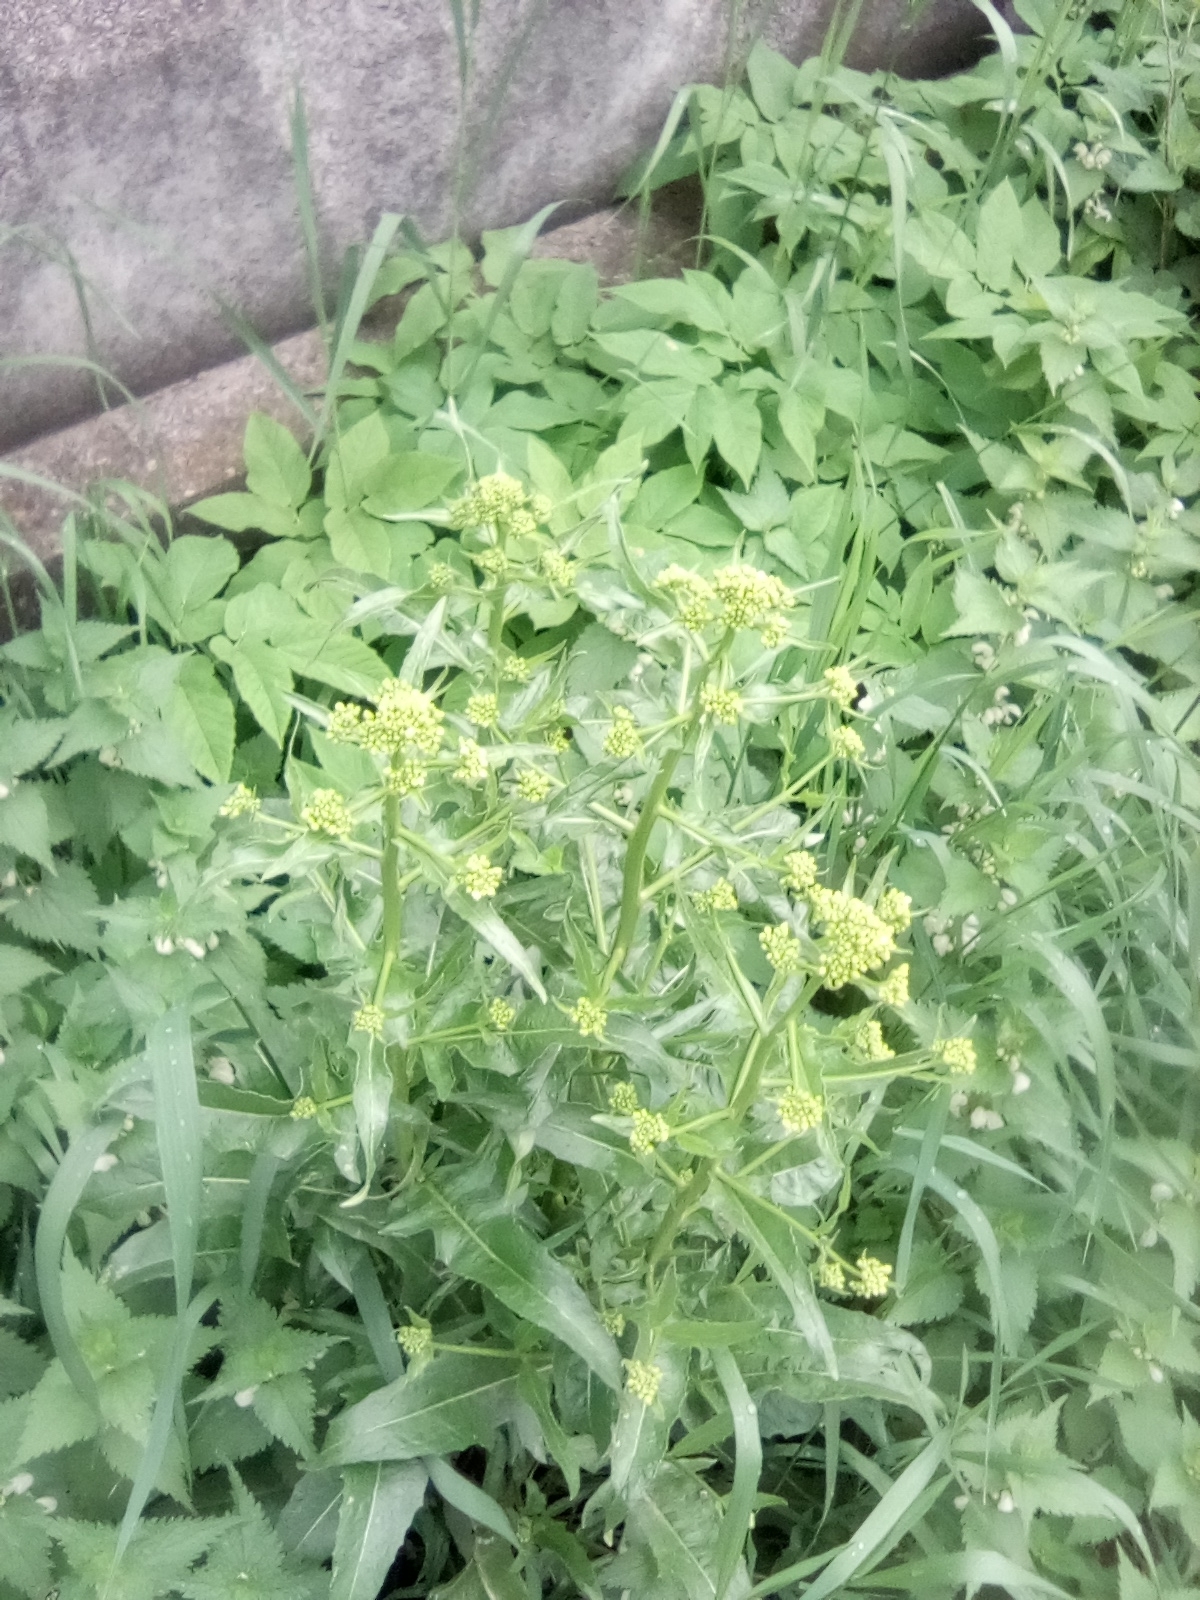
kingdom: Plantae
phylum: Tracheophyta
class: Magnoliopsida
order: Brassicales
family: Brassicaceae
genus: Bunias
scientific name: Bunias orientalis
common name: Warty-cabbage
